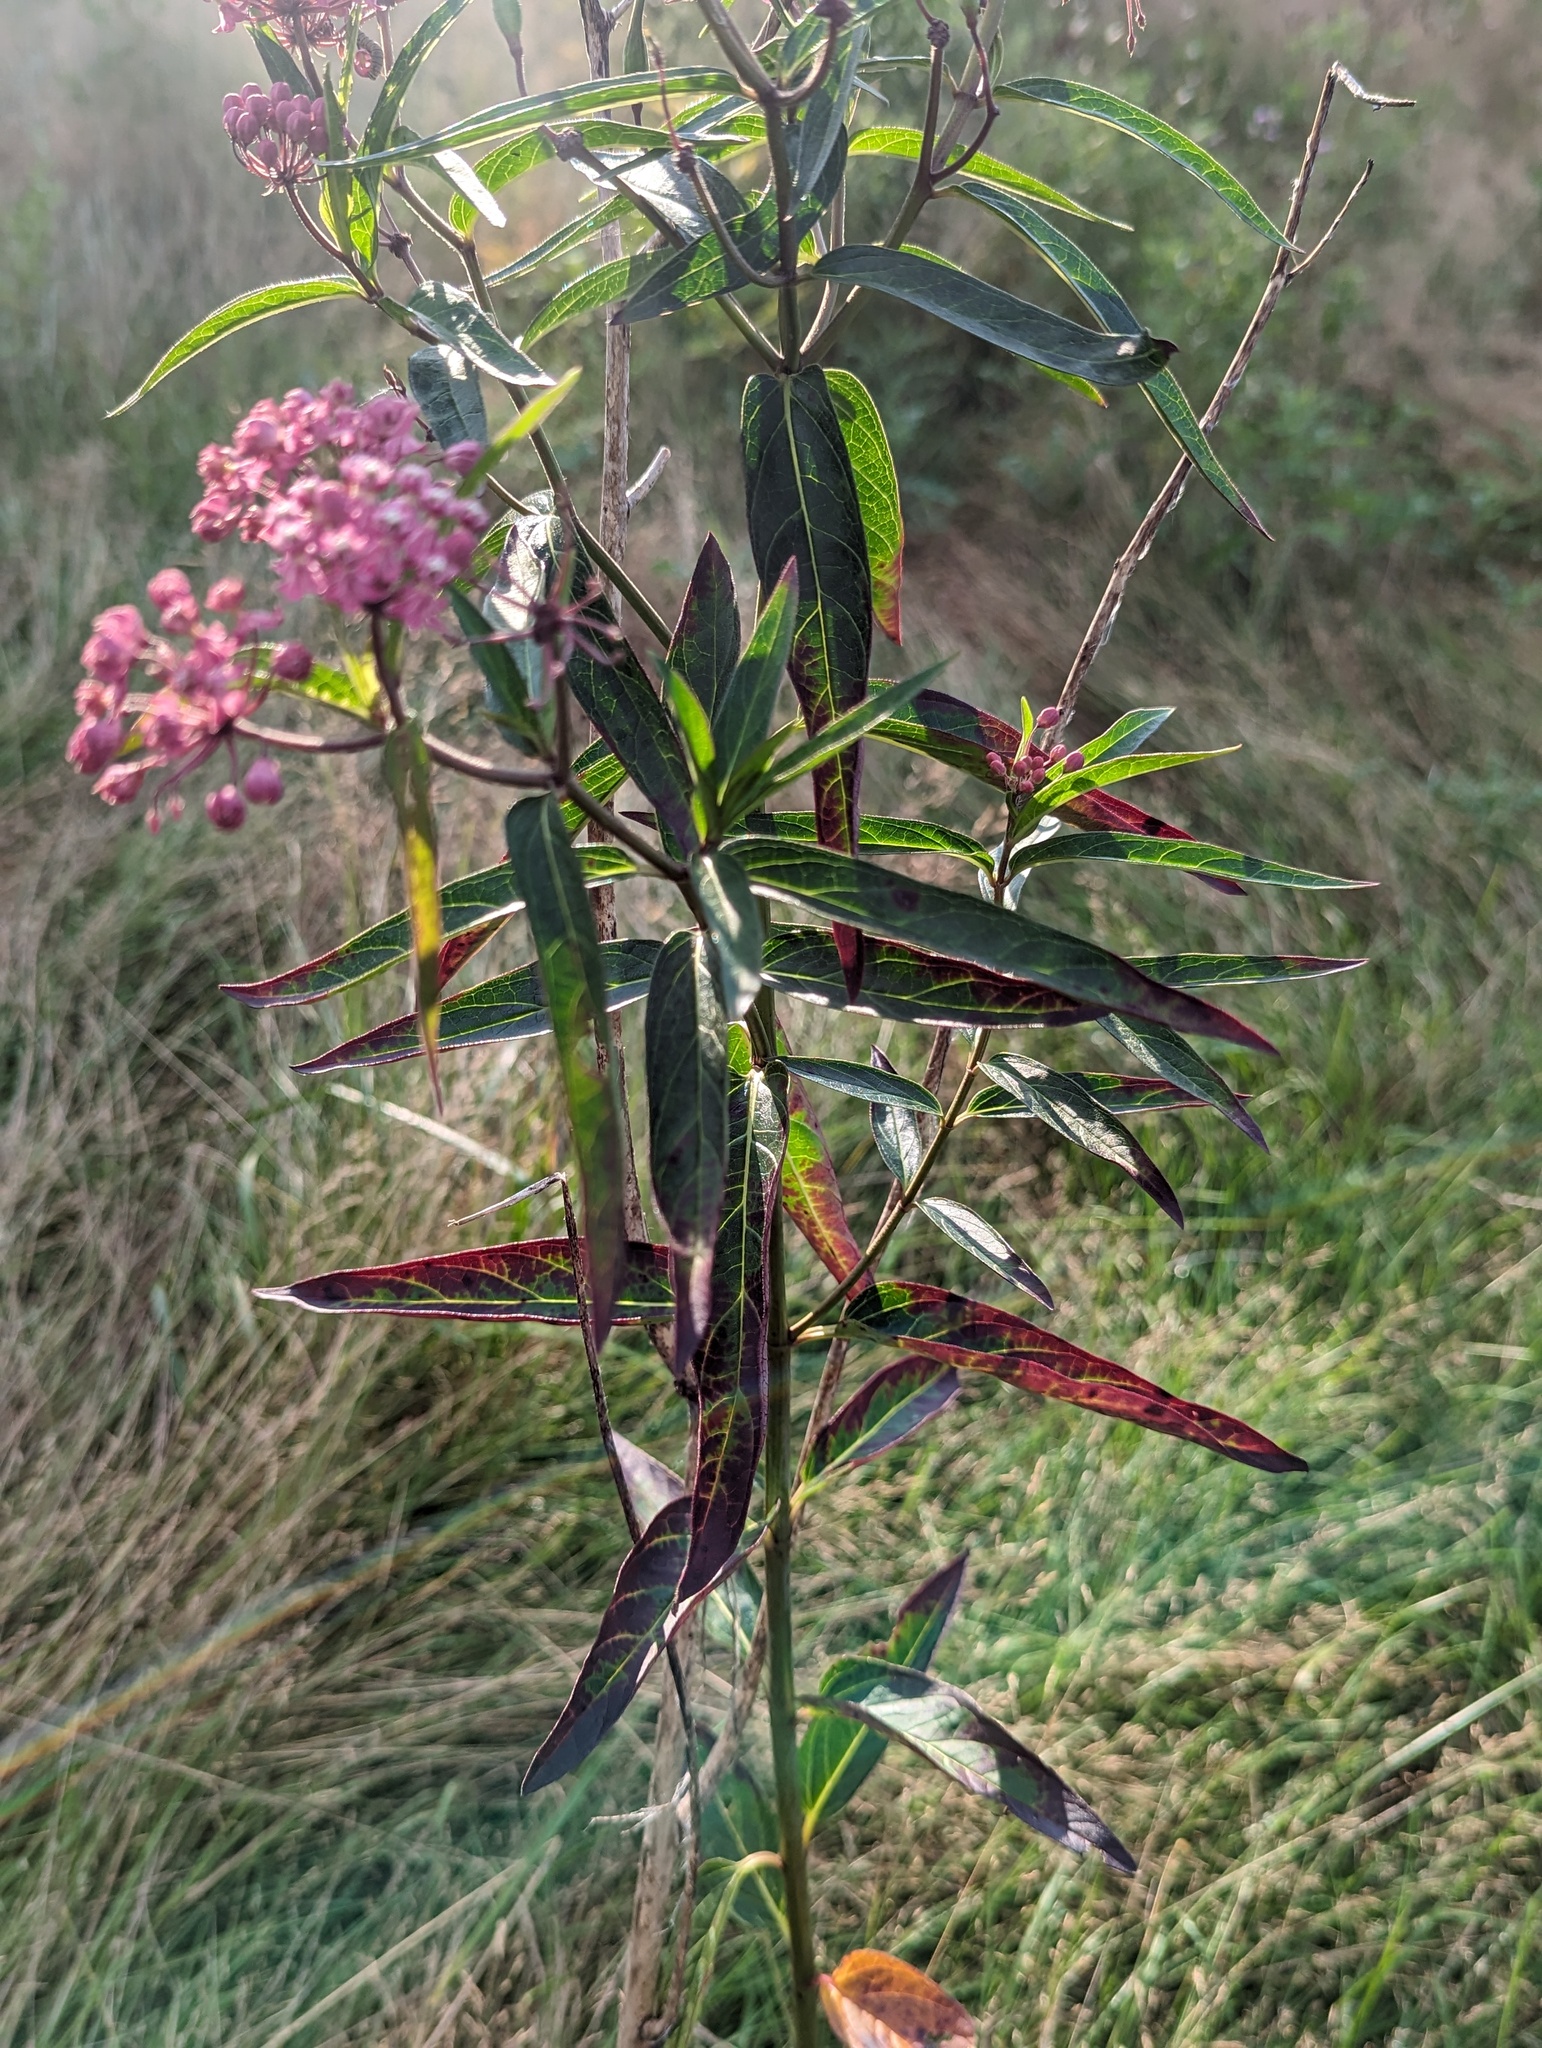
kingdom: Plantae
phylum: Tracheophyta
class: Magnoliopsida
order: Gentianales
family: Apocynaceae
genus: Asclepias
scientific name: Asclepias incarnata
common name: Swamp milkweed
